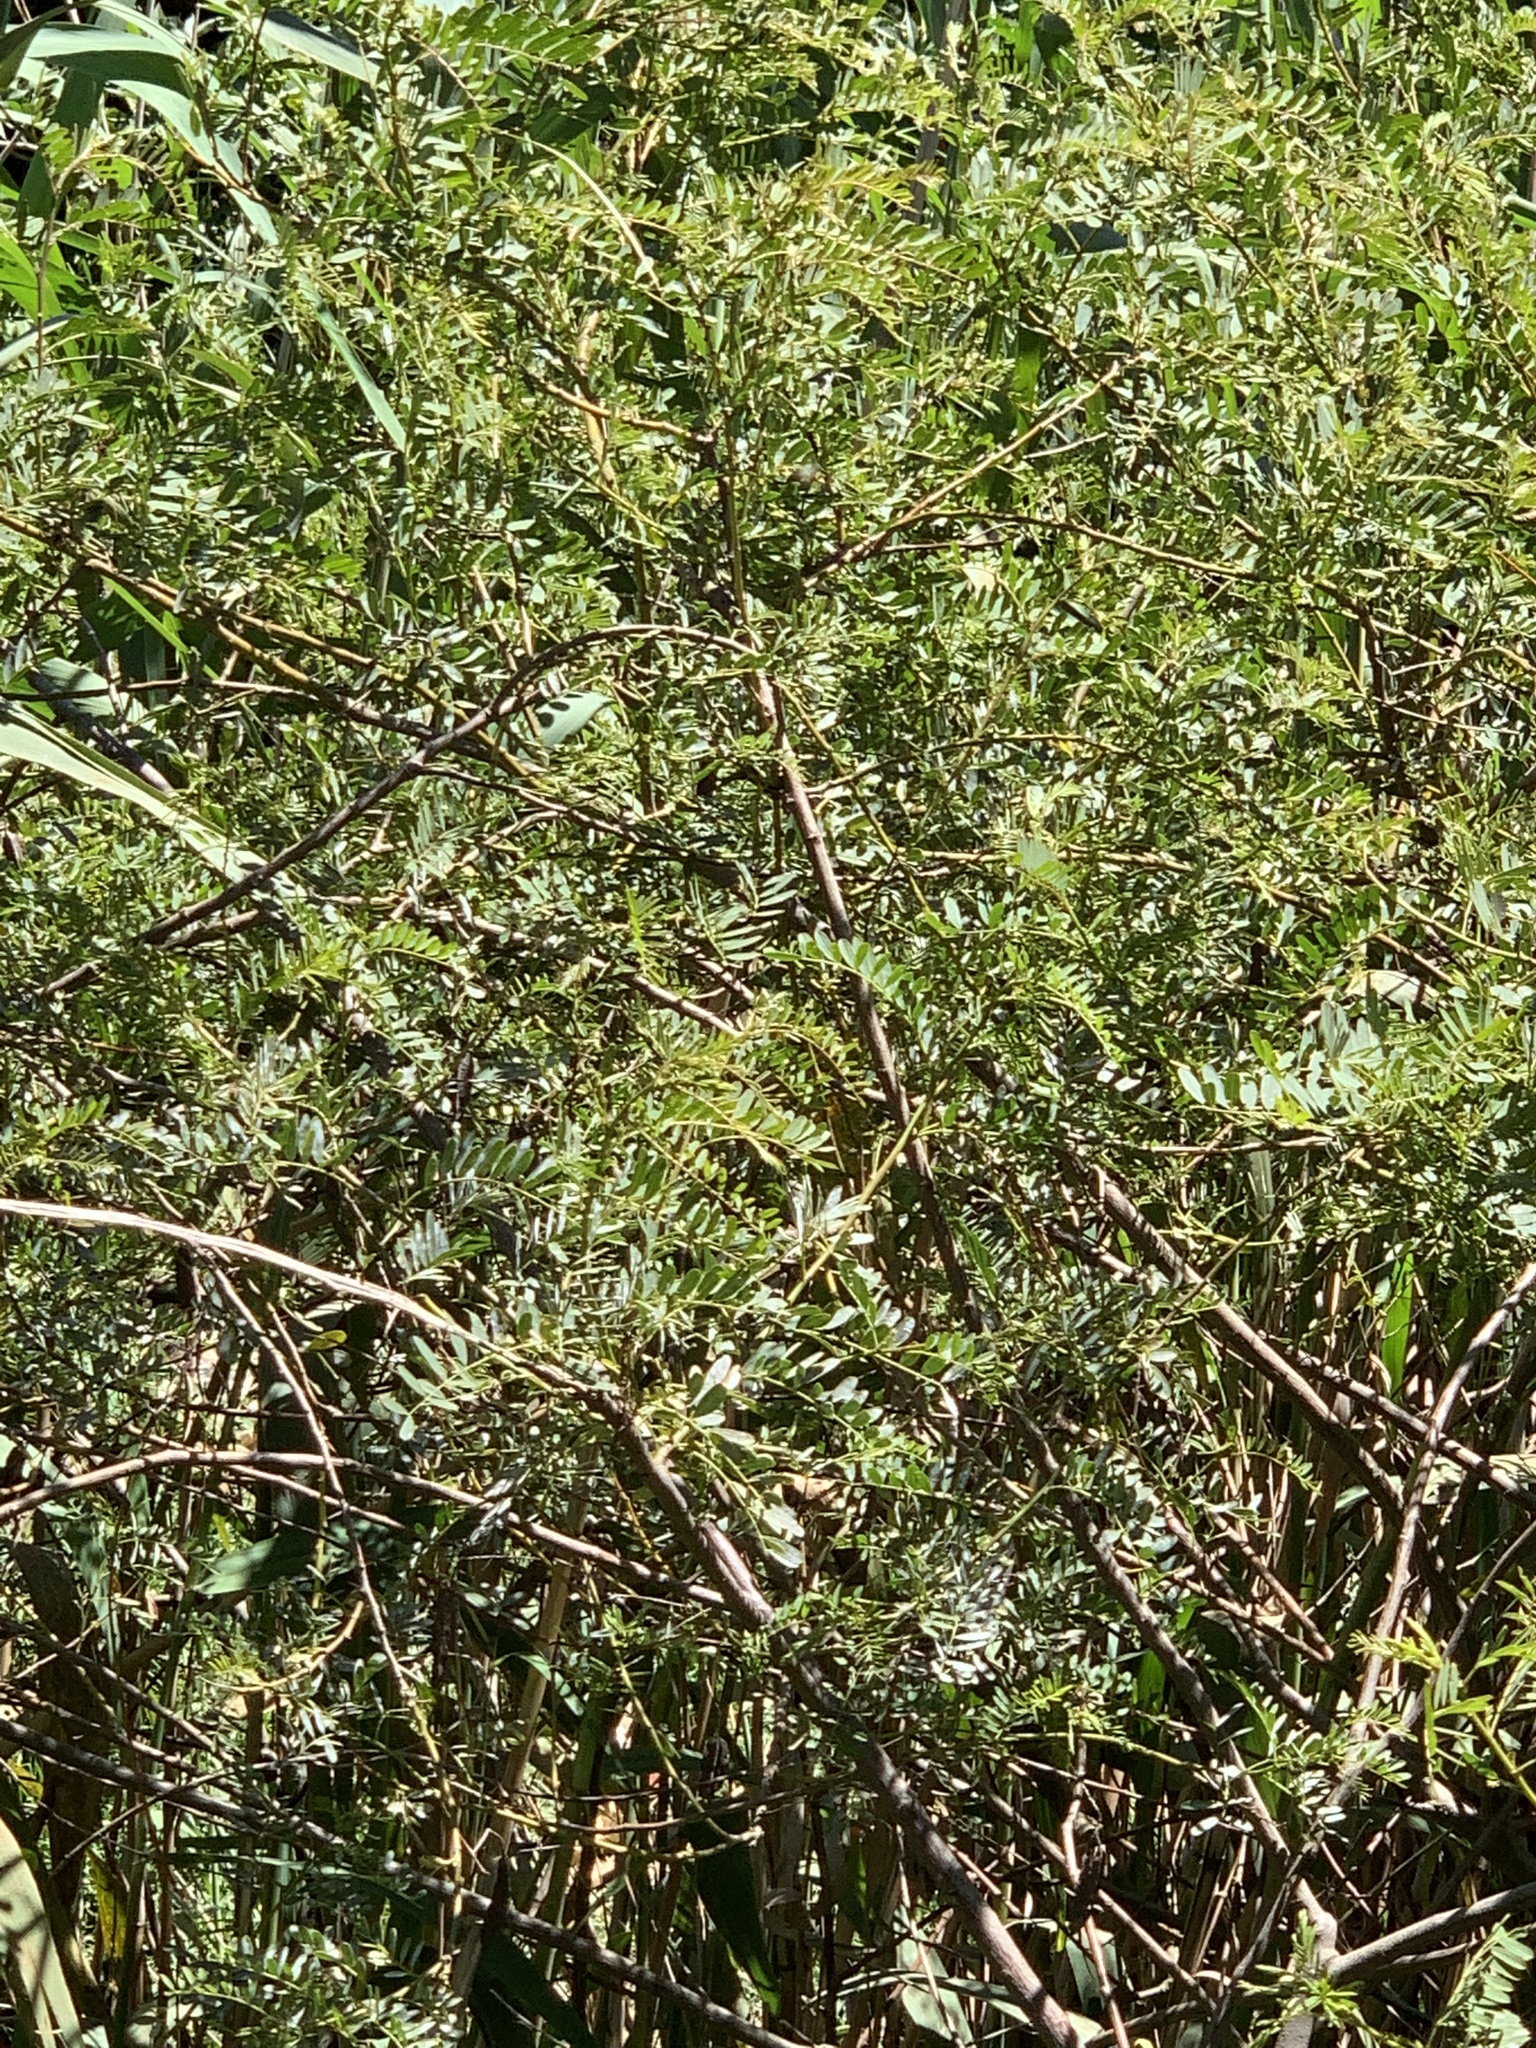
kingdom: Plantae
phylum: Tracheophyta
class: Magnoliopsida
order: Fabales
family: Fabaceae
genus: Sesbania
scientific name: Sesbania punicea
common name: Rattlebox
